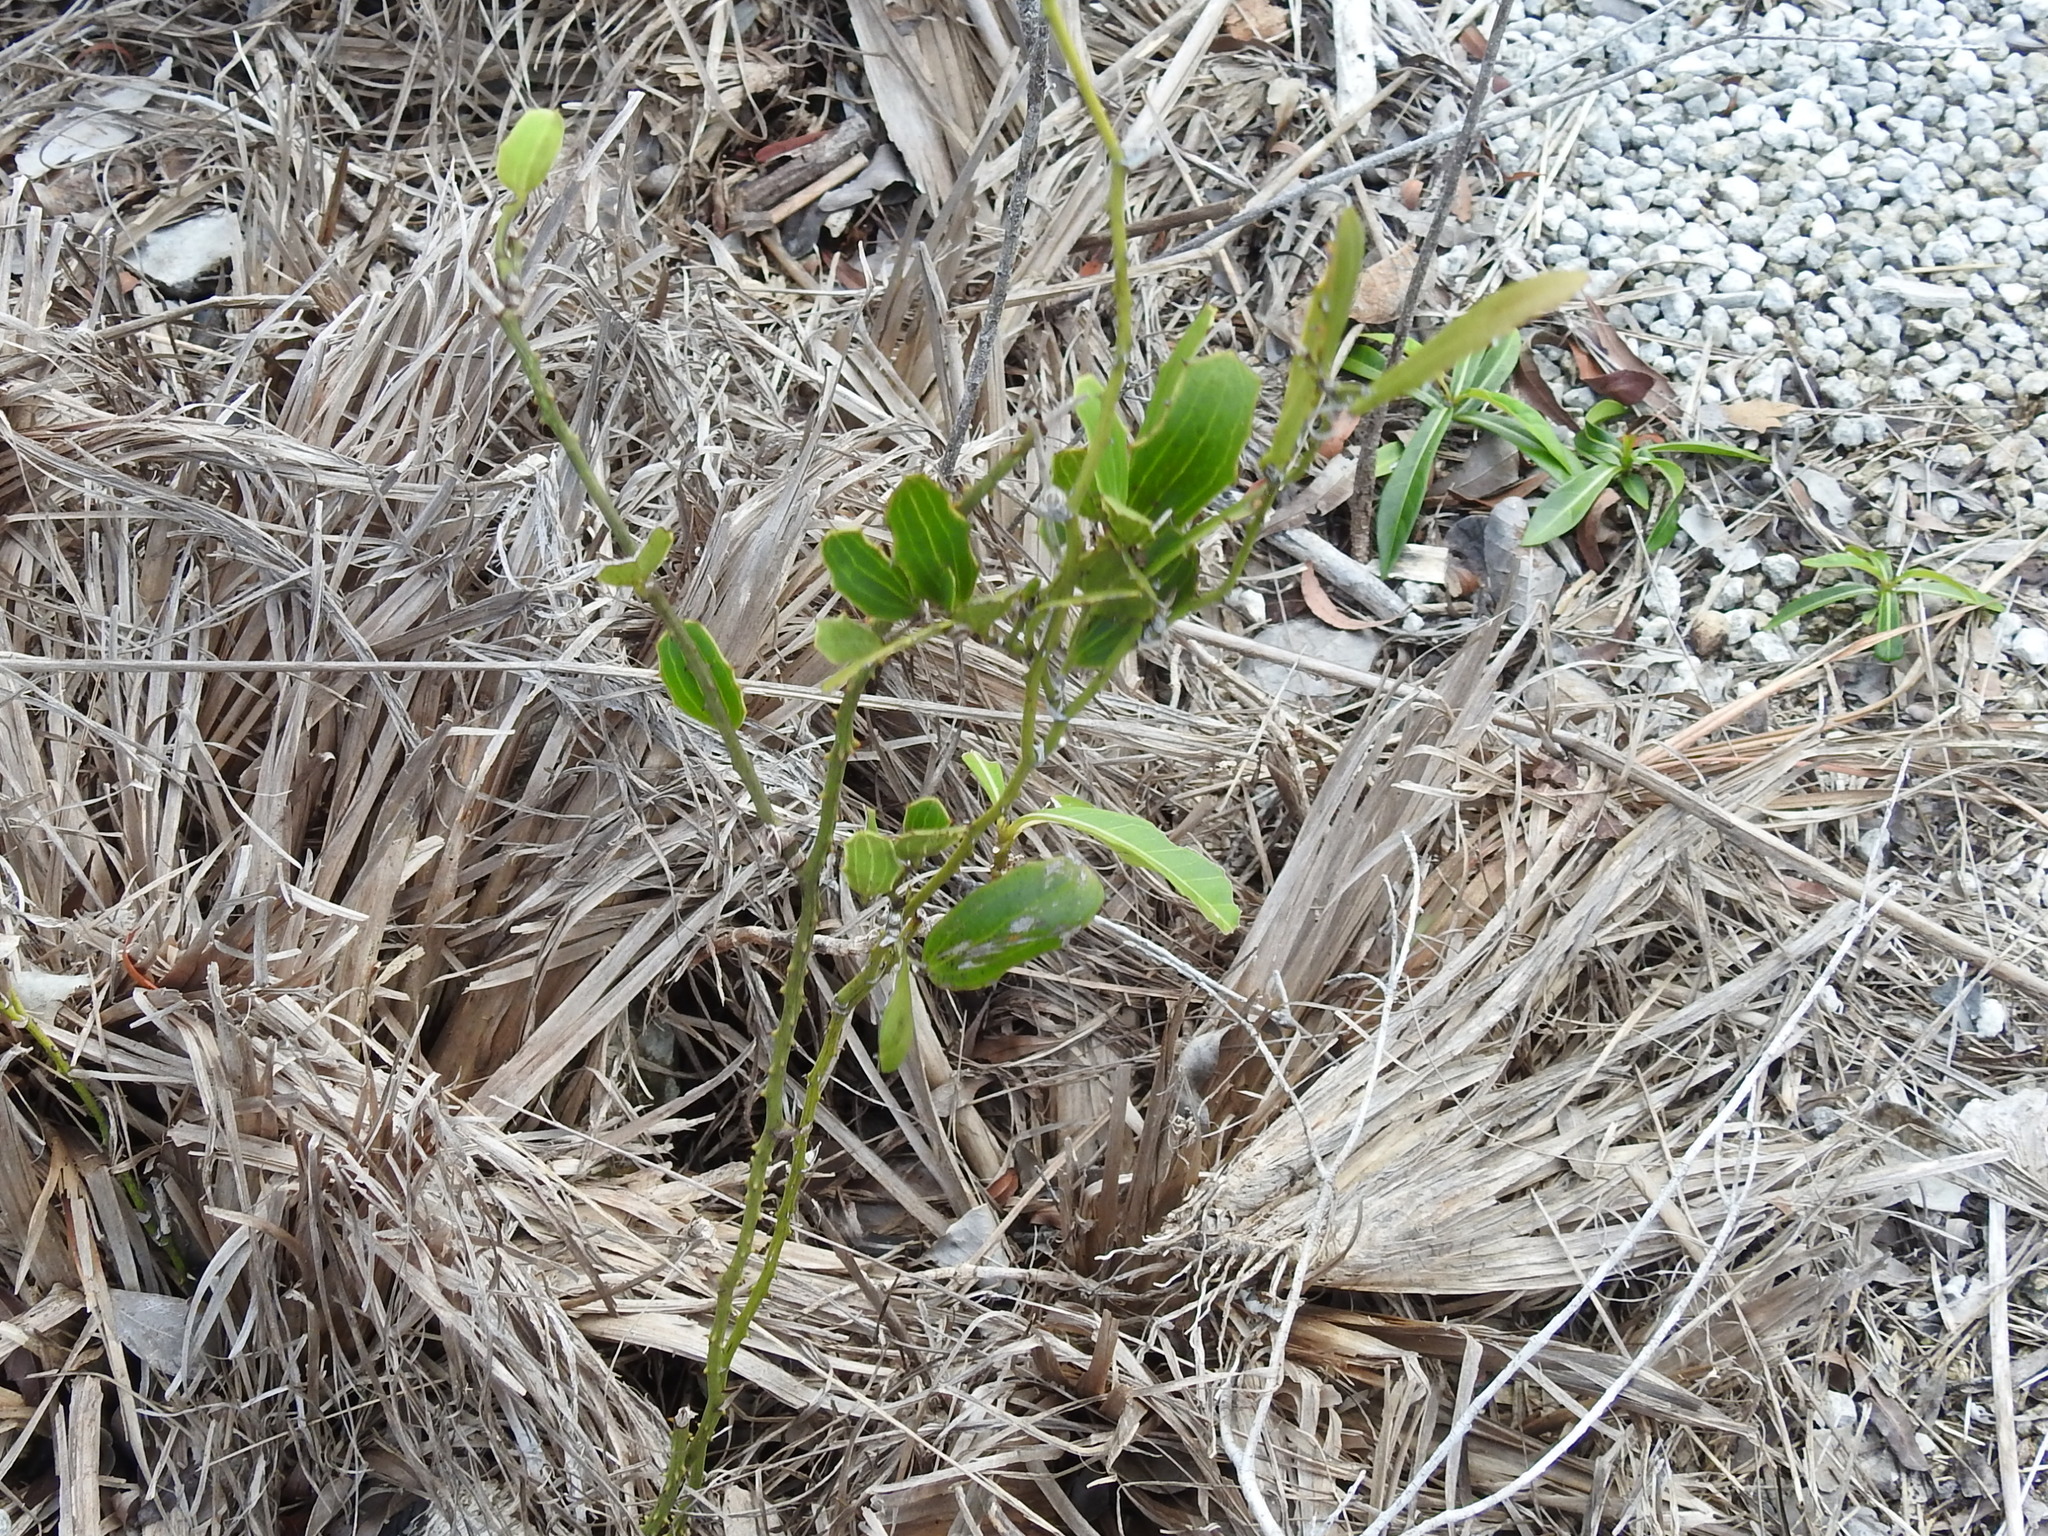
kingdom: Plantae
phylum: Tracheophyta
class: Liliopsida
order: Liliales
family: Smilacaceae
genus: Smilax
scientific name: Smilax havanensis
